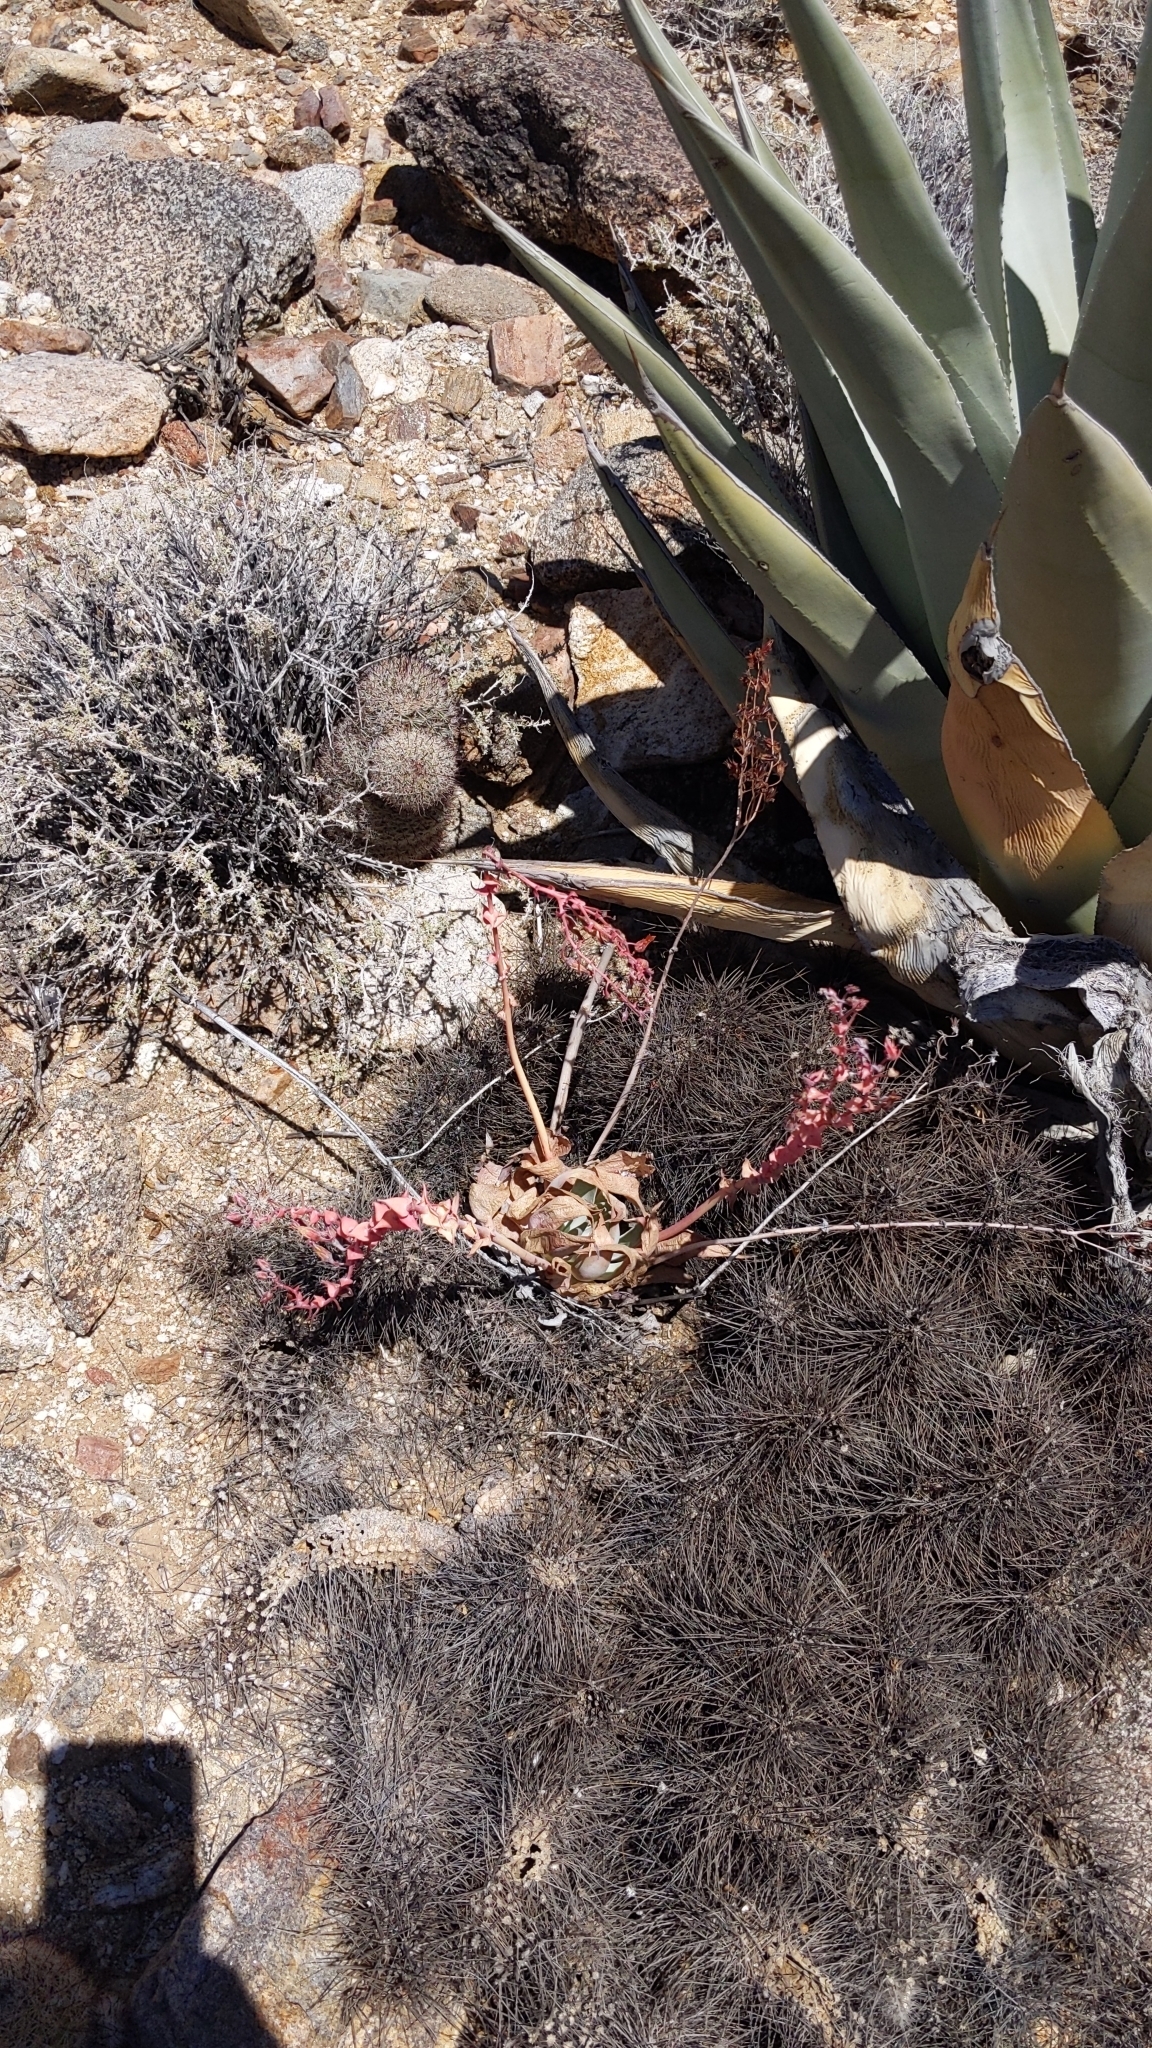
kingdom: Plantae
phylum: Tracheophyta
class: Magnoliopsida
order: Saxifragales
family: Crassulaceae
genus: Dudleya
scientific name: Dudleya arizonica
